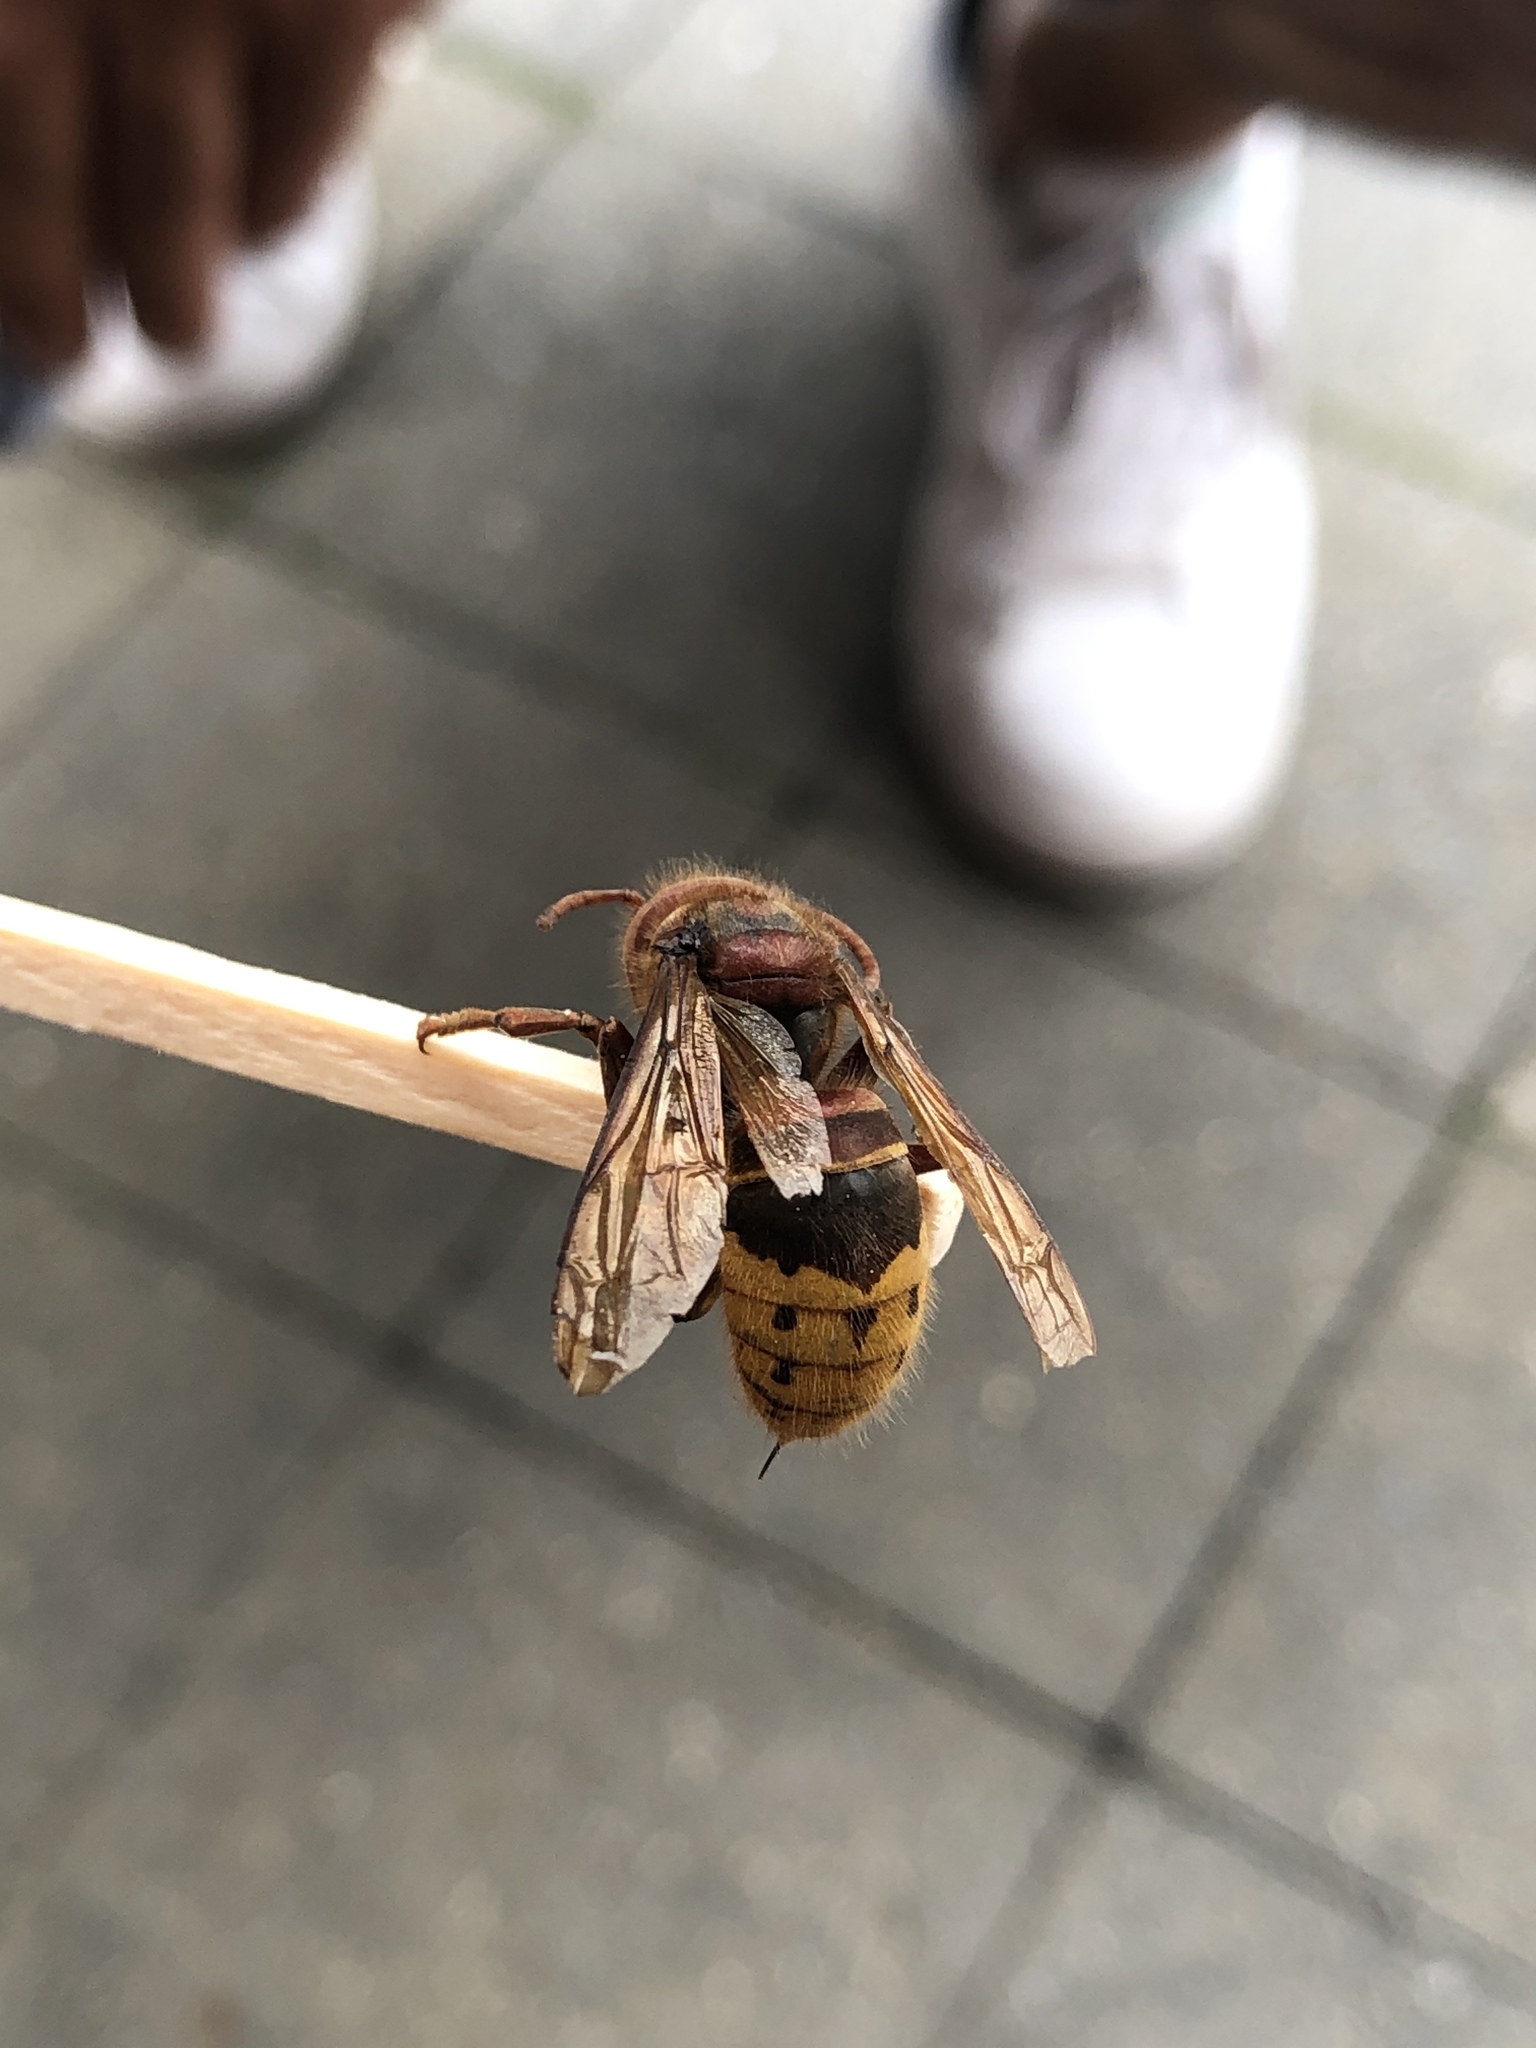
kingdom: Animalia
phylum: Arthropoda
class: Insecta
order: Hymenoptera
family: Vespidae
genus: Vespa
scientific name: Vespa crabro
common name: Hornet
